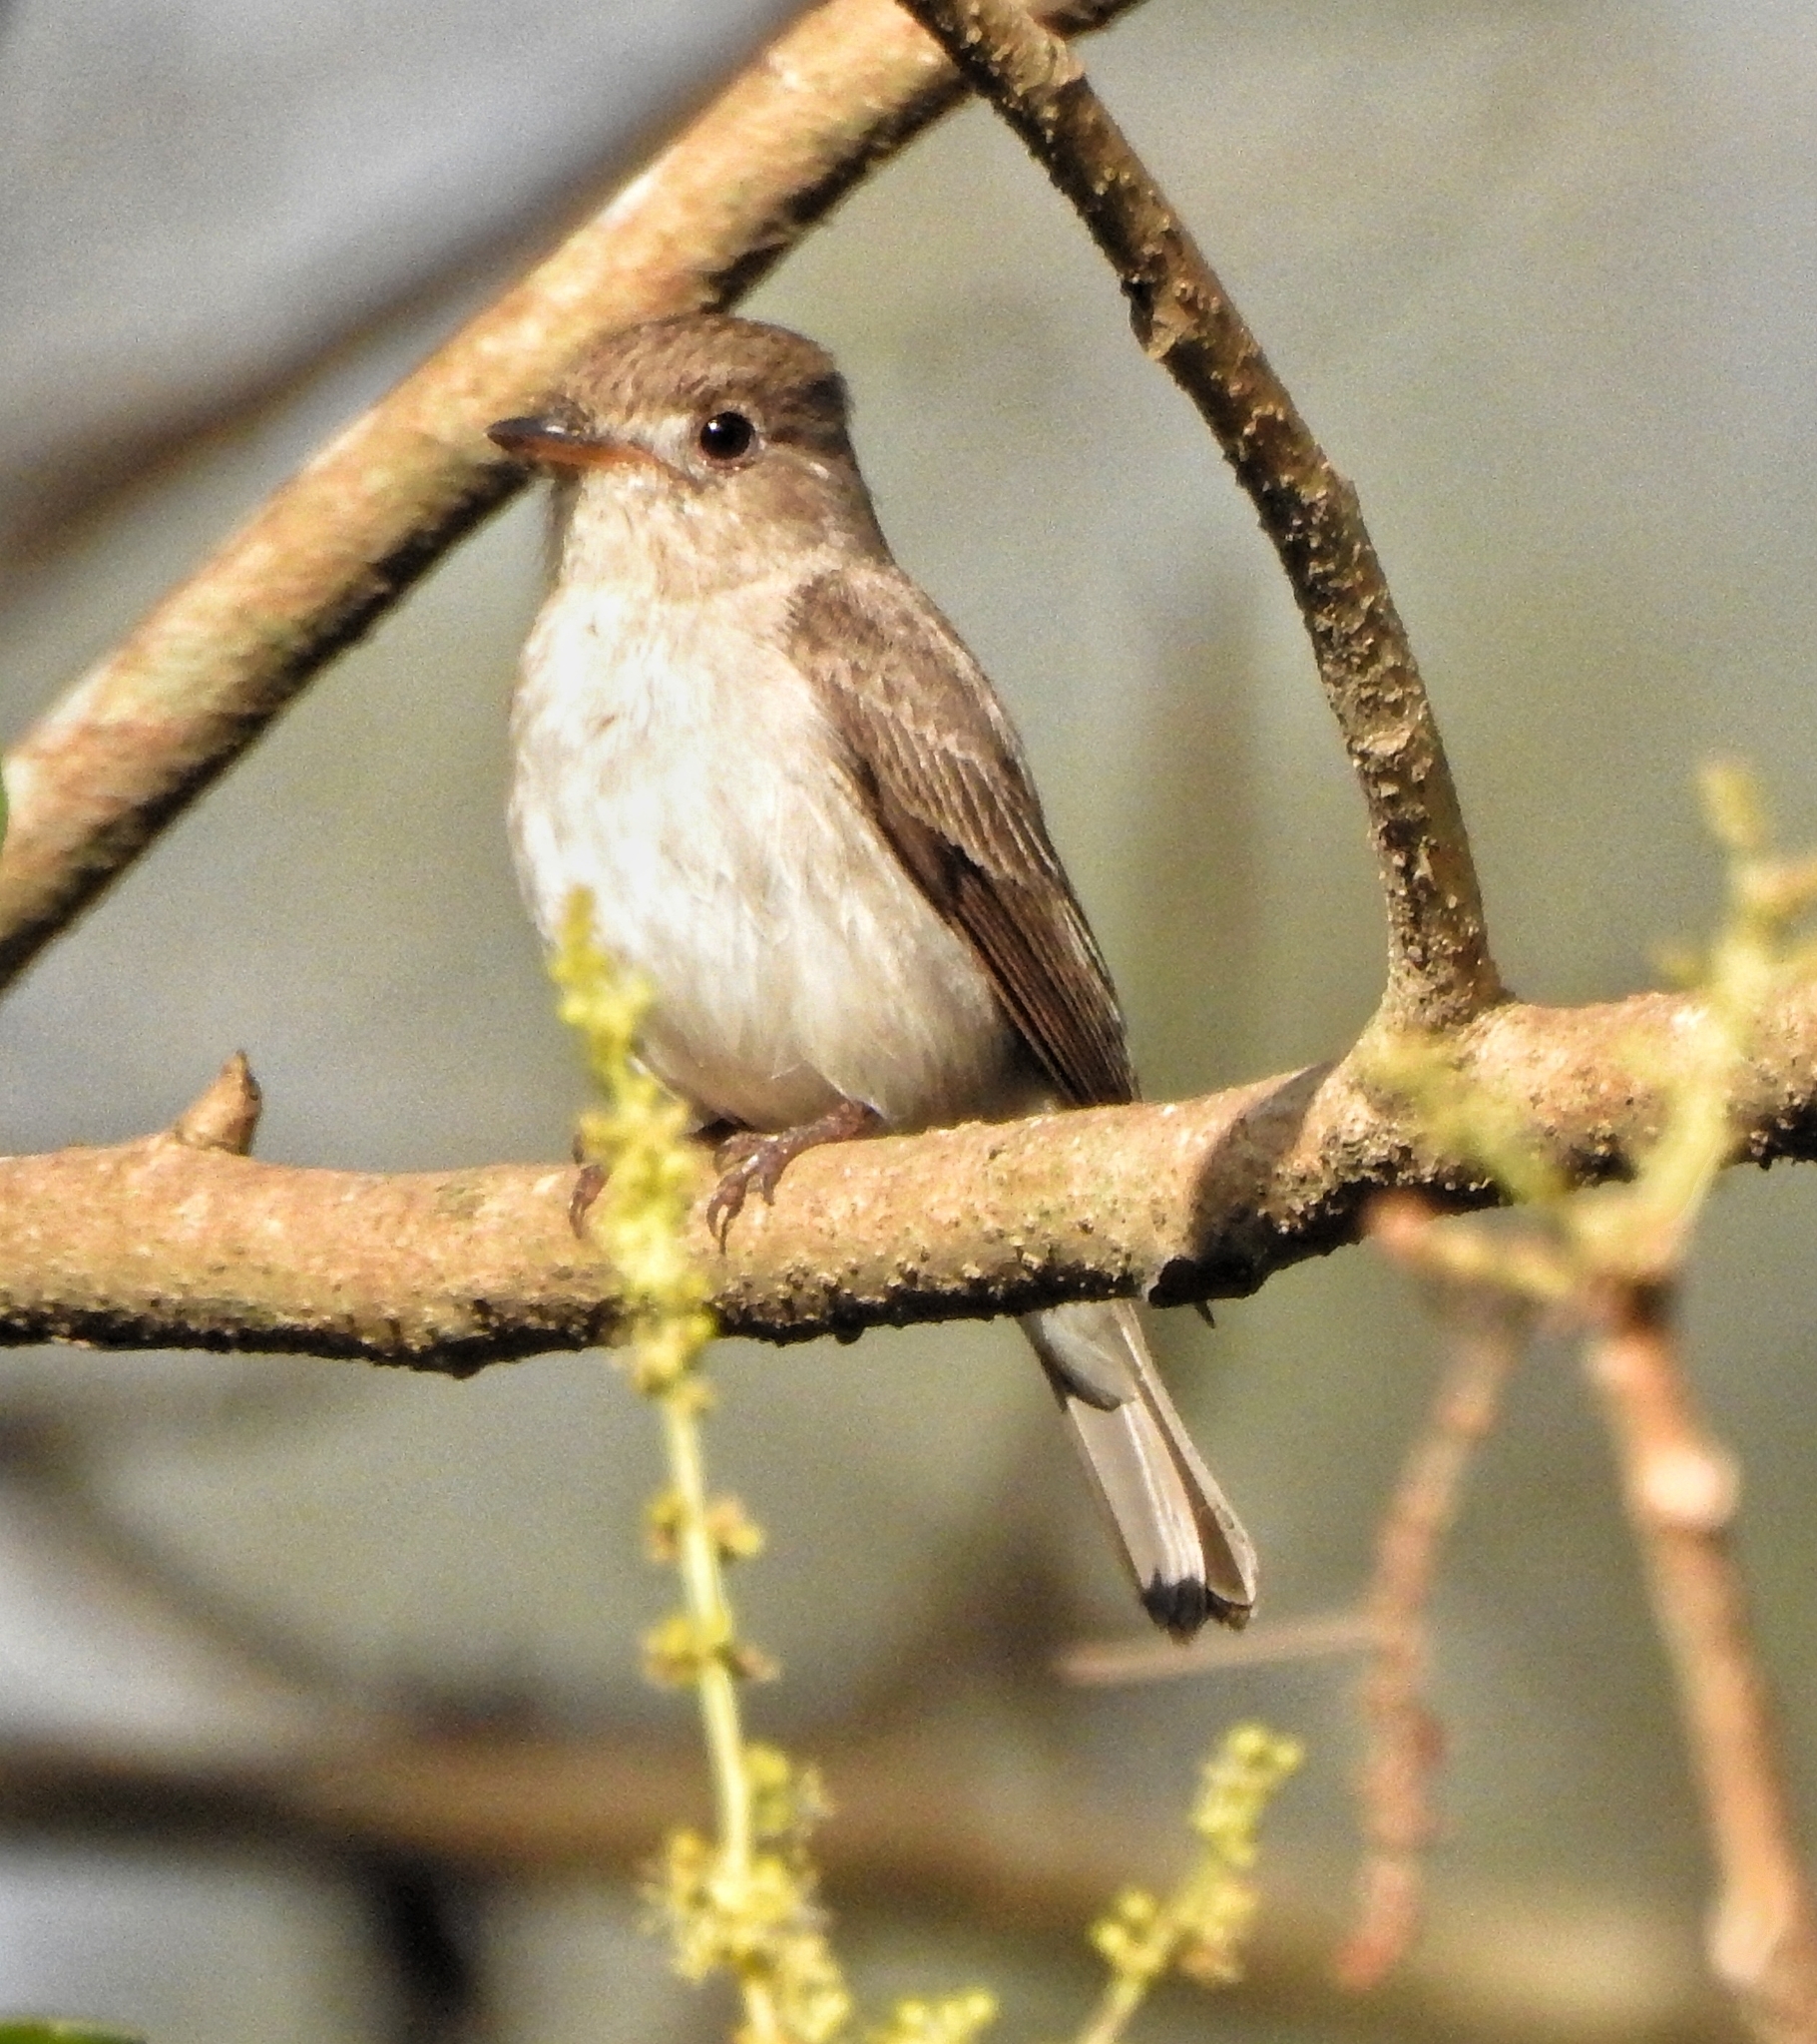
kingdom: Animalia
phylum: Chordata
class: Aves
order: Passeriformes
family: Muscicapidae
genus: Muscicapa
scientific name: Muscicapa latirostris
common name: Asian brown flycatcher
